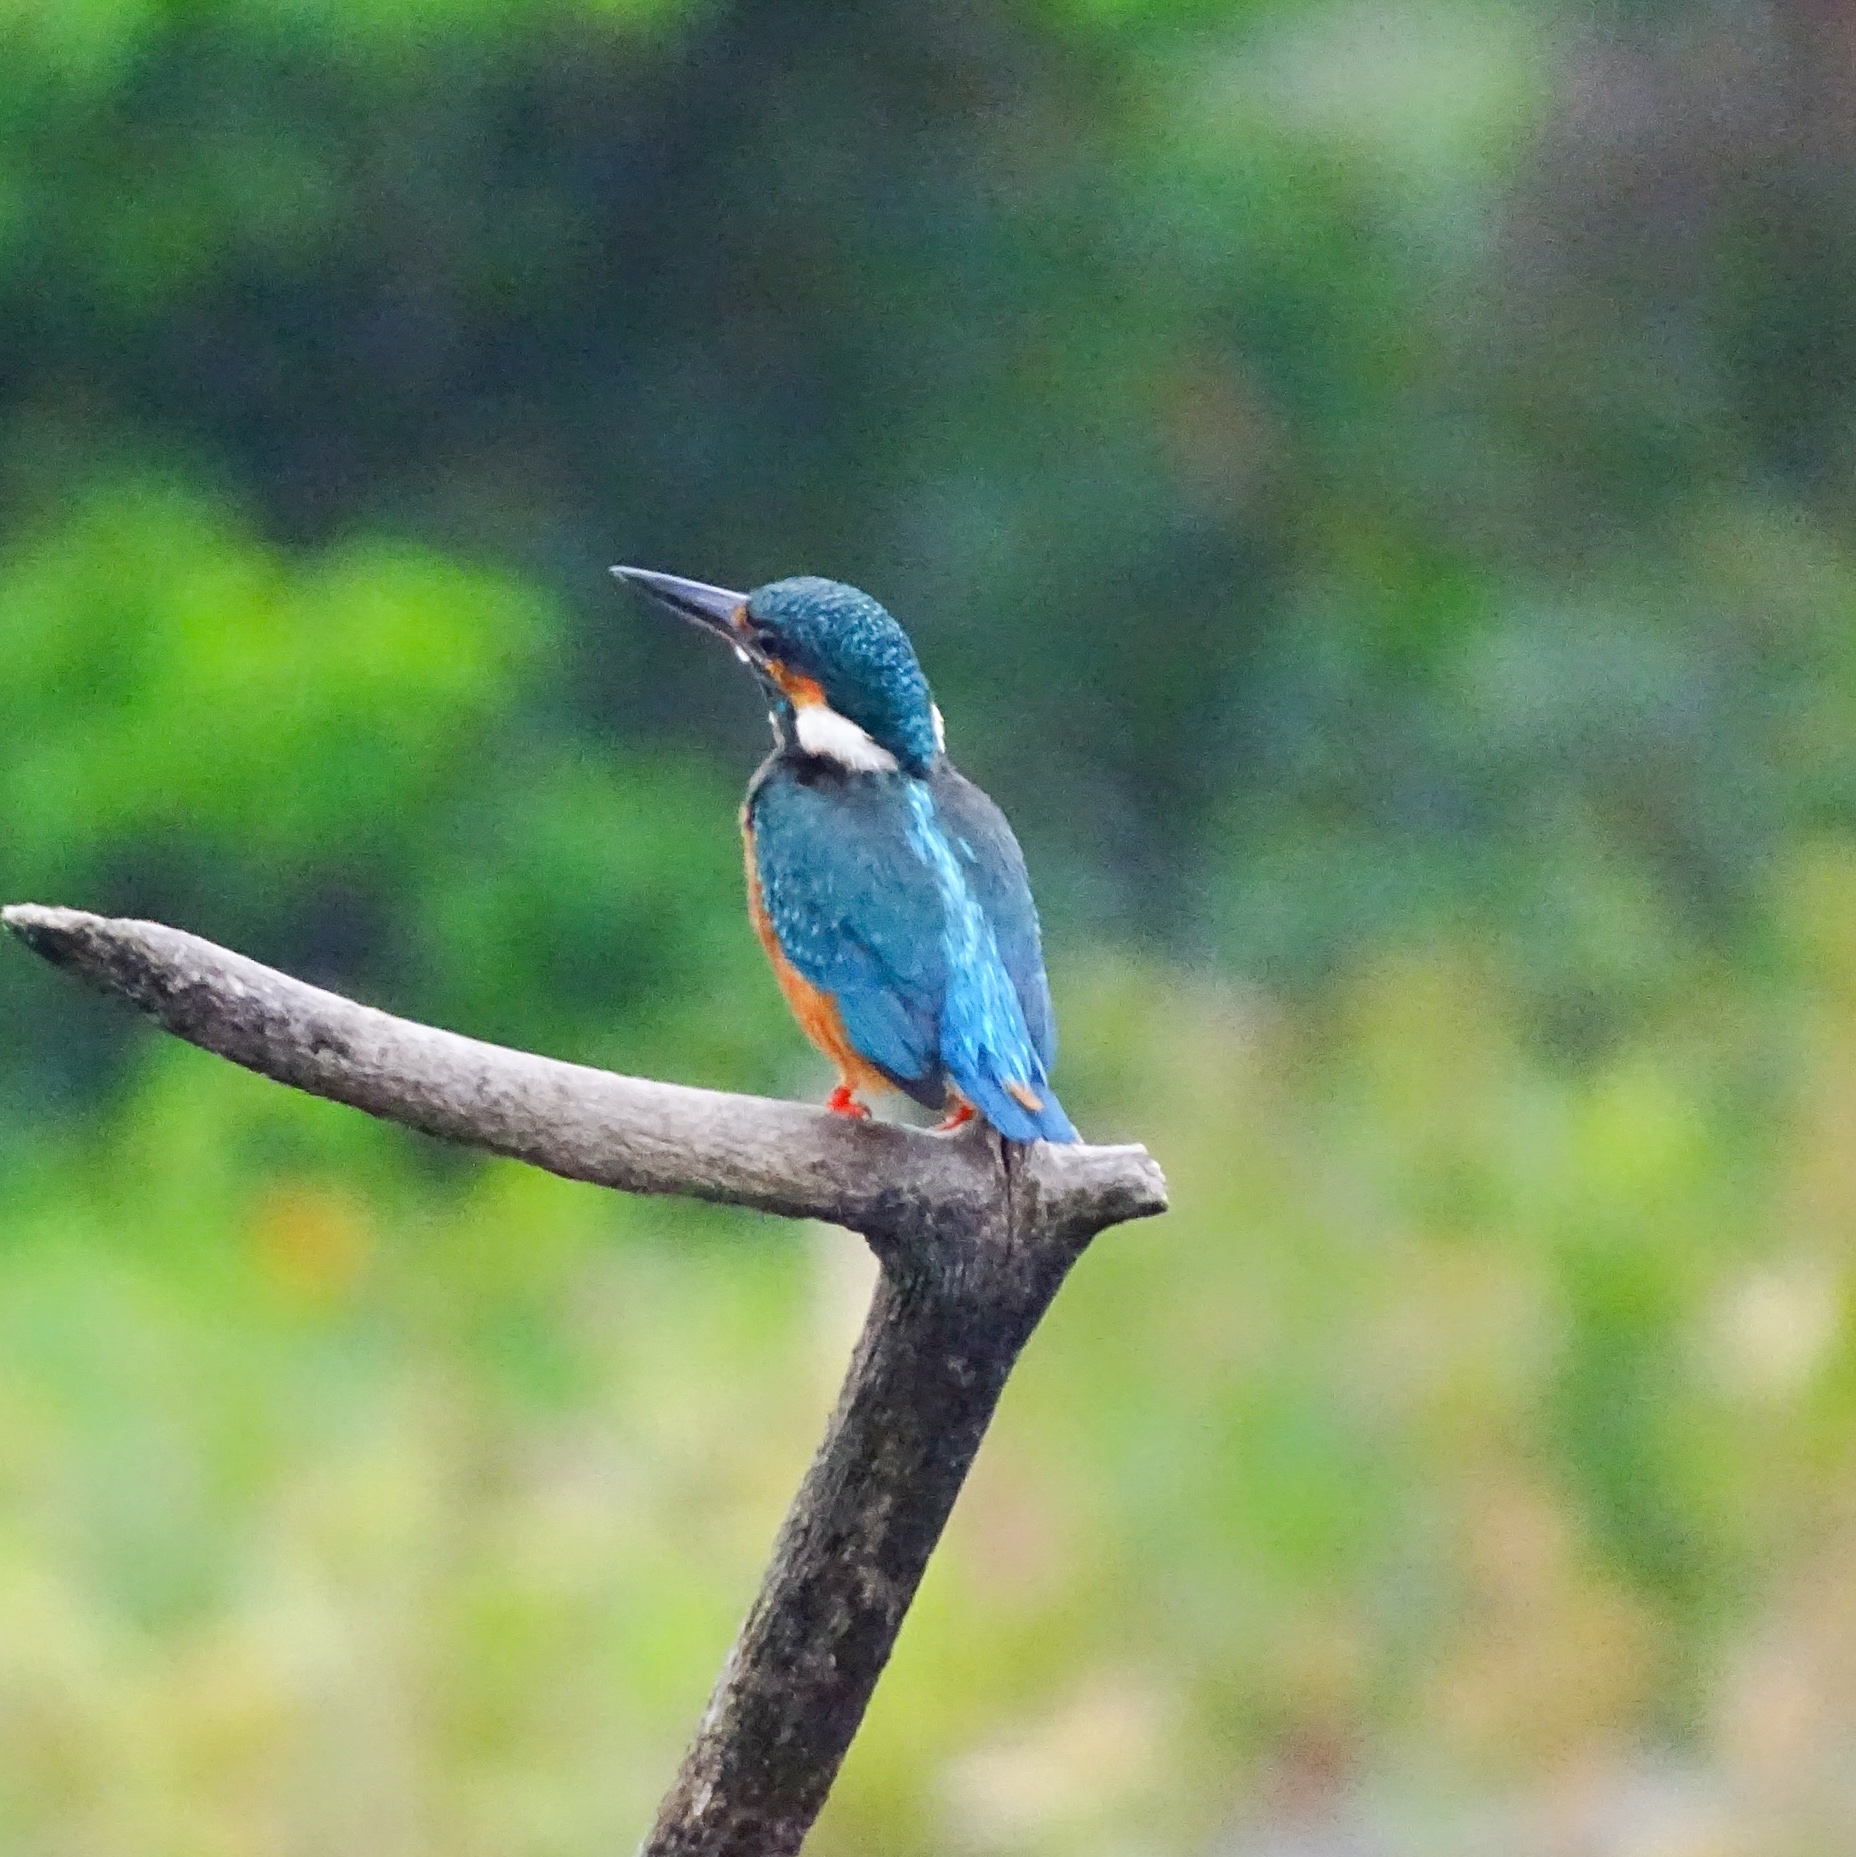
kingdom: Animalia
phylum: Chordata
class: Aves
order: Coraciiformes
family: Alcedinidae
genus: Alcedo
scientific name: Alcedo atthis
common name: Common kingfisher
